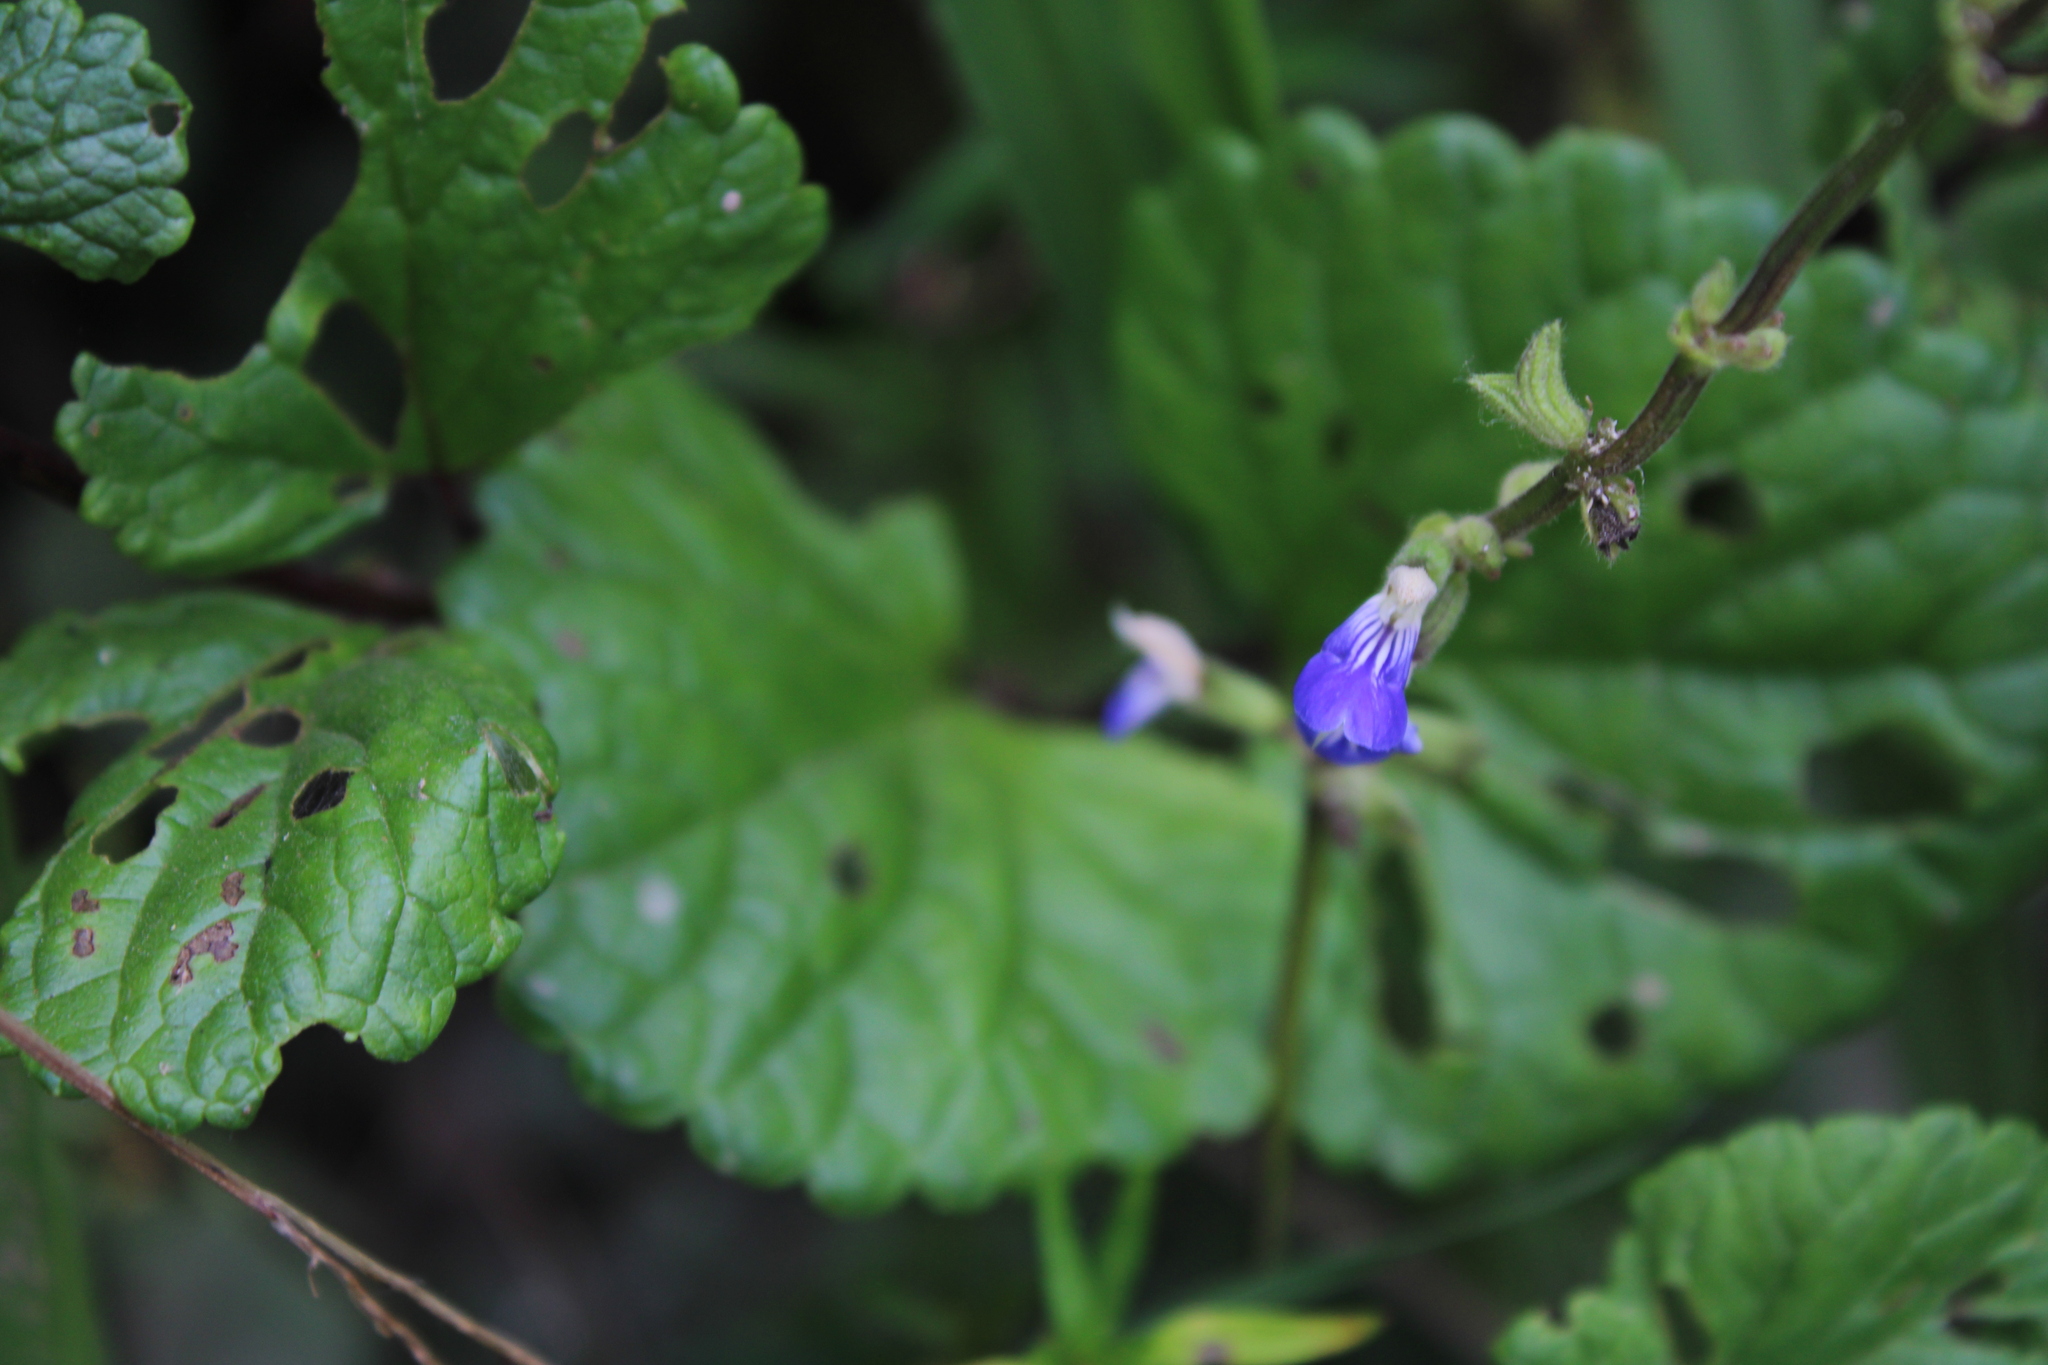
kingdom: Plantae
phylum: Tracheophyta
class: Magnoliopsida
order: Lamiales
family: Lamiaceae
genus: Salvia
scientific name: Salvia procurrens
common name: Blue creeper
